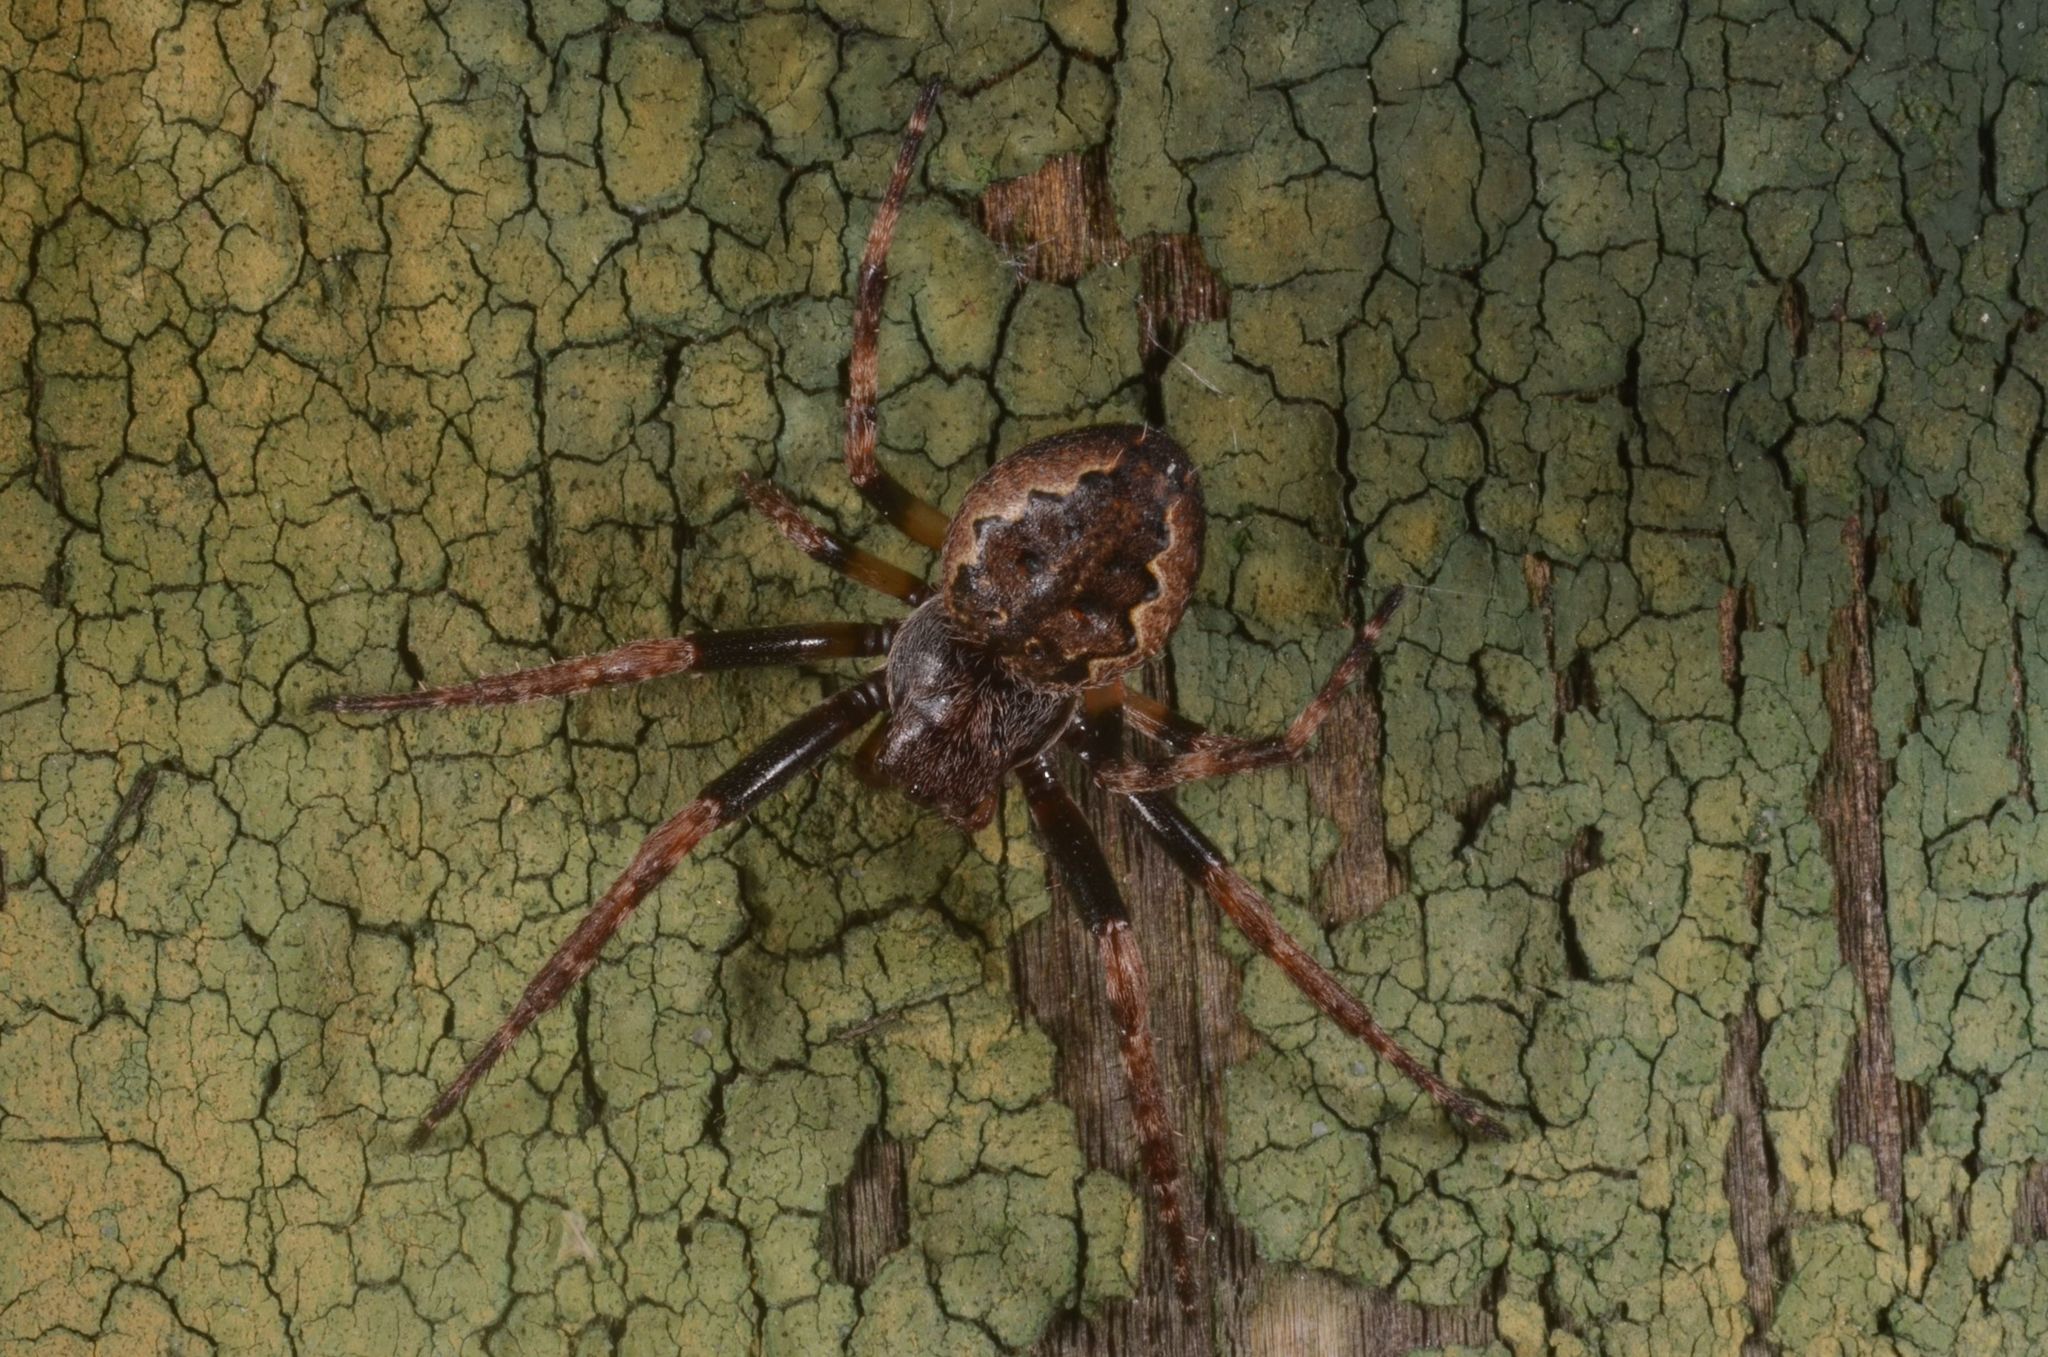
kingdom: Animalia
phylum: Arthropoda
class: Arachnida
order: Araneae
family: Araneidae
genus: Nuctenea
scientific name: Nuctenea umbratica
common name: Toad spider
